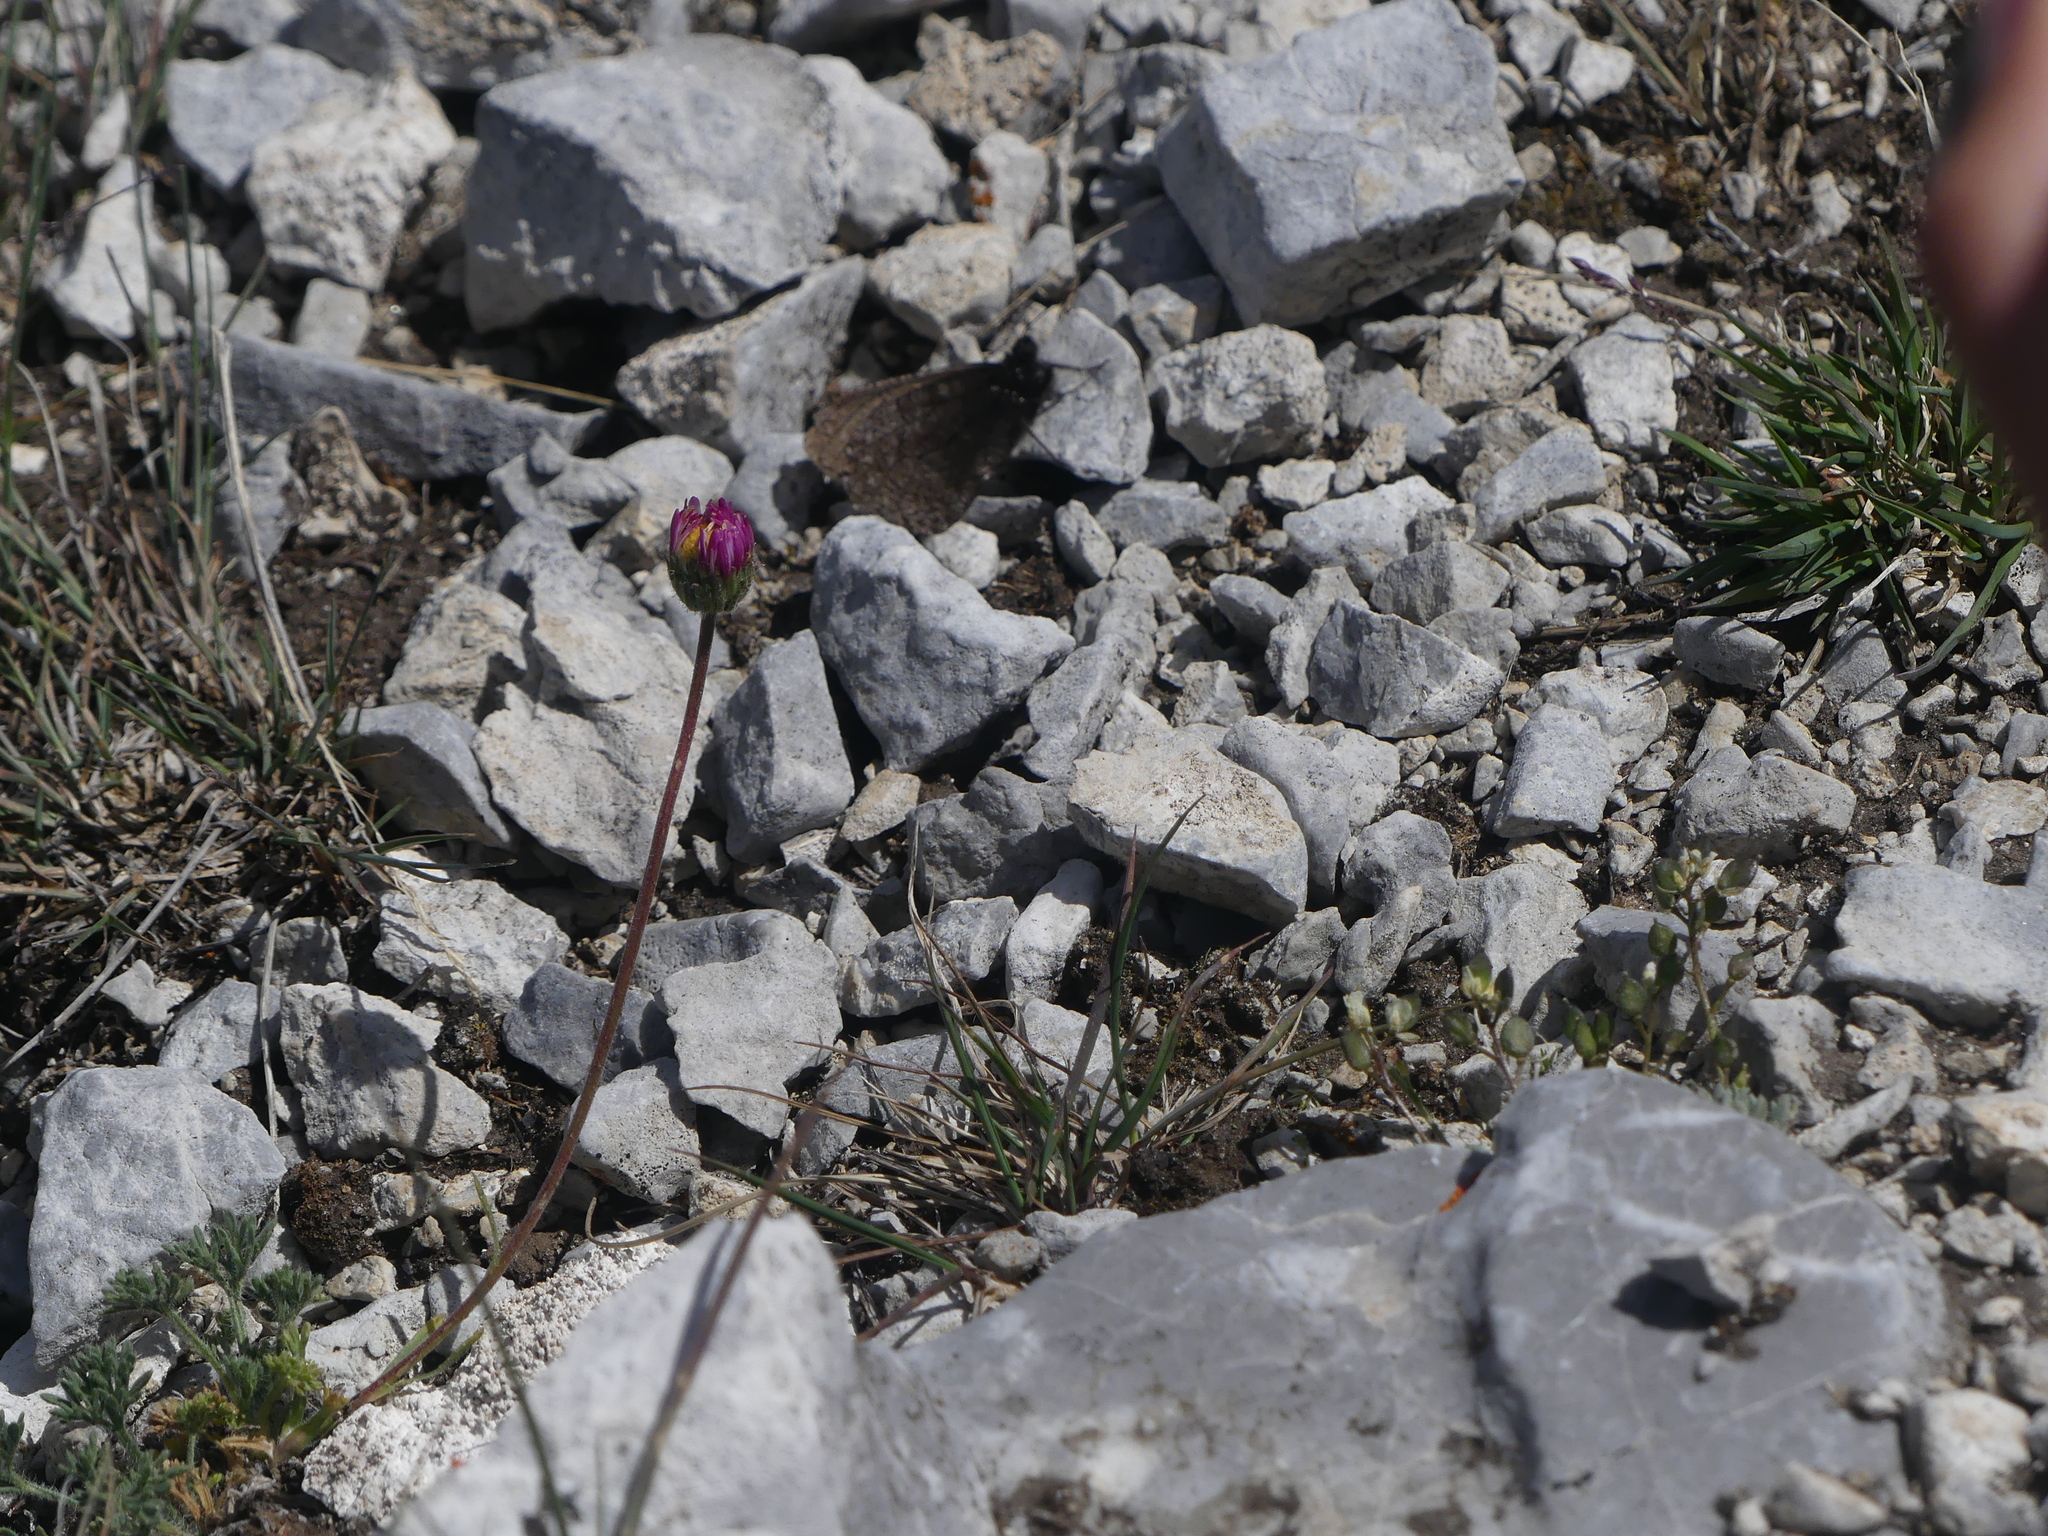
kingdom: Plantae
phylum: Tracheophyta
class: Magnoliopsida
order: Asterales
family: Asteraceae
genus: Erigeron
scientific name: Erigeron compositus
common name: Dwarf mountain fleabane
